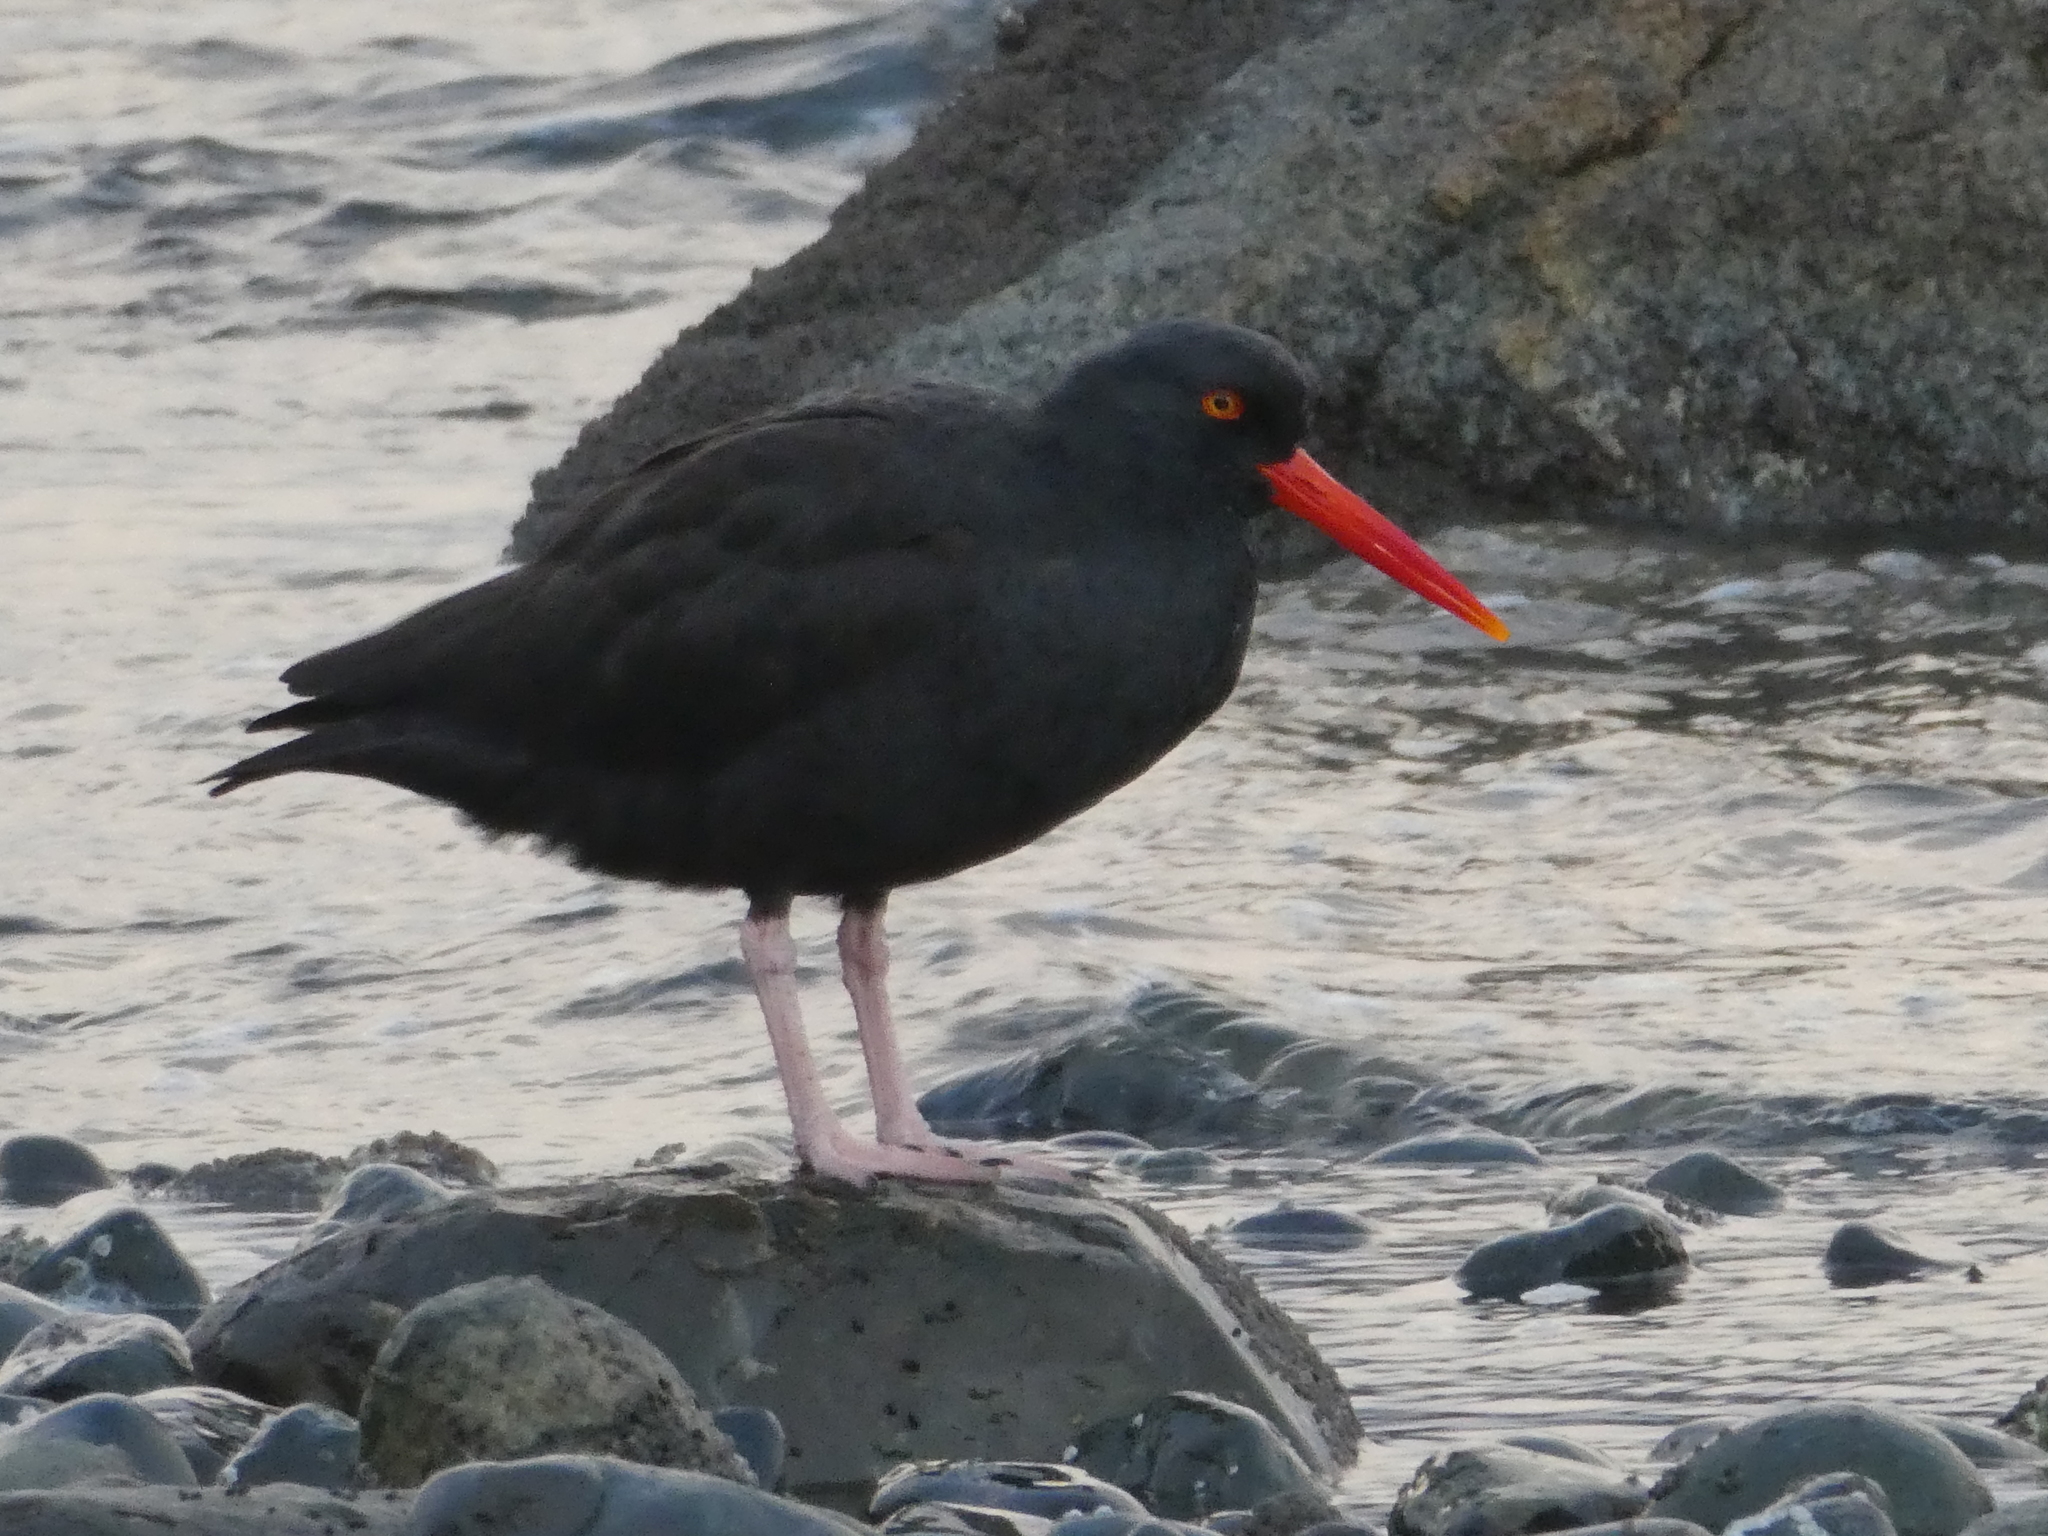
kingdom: Animalia
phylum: Chordata
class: Aves
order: Charadriiformes
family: Haematopodidae
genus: Haematopus
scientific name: Haematopus bachmani
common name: Black oystercatcher
